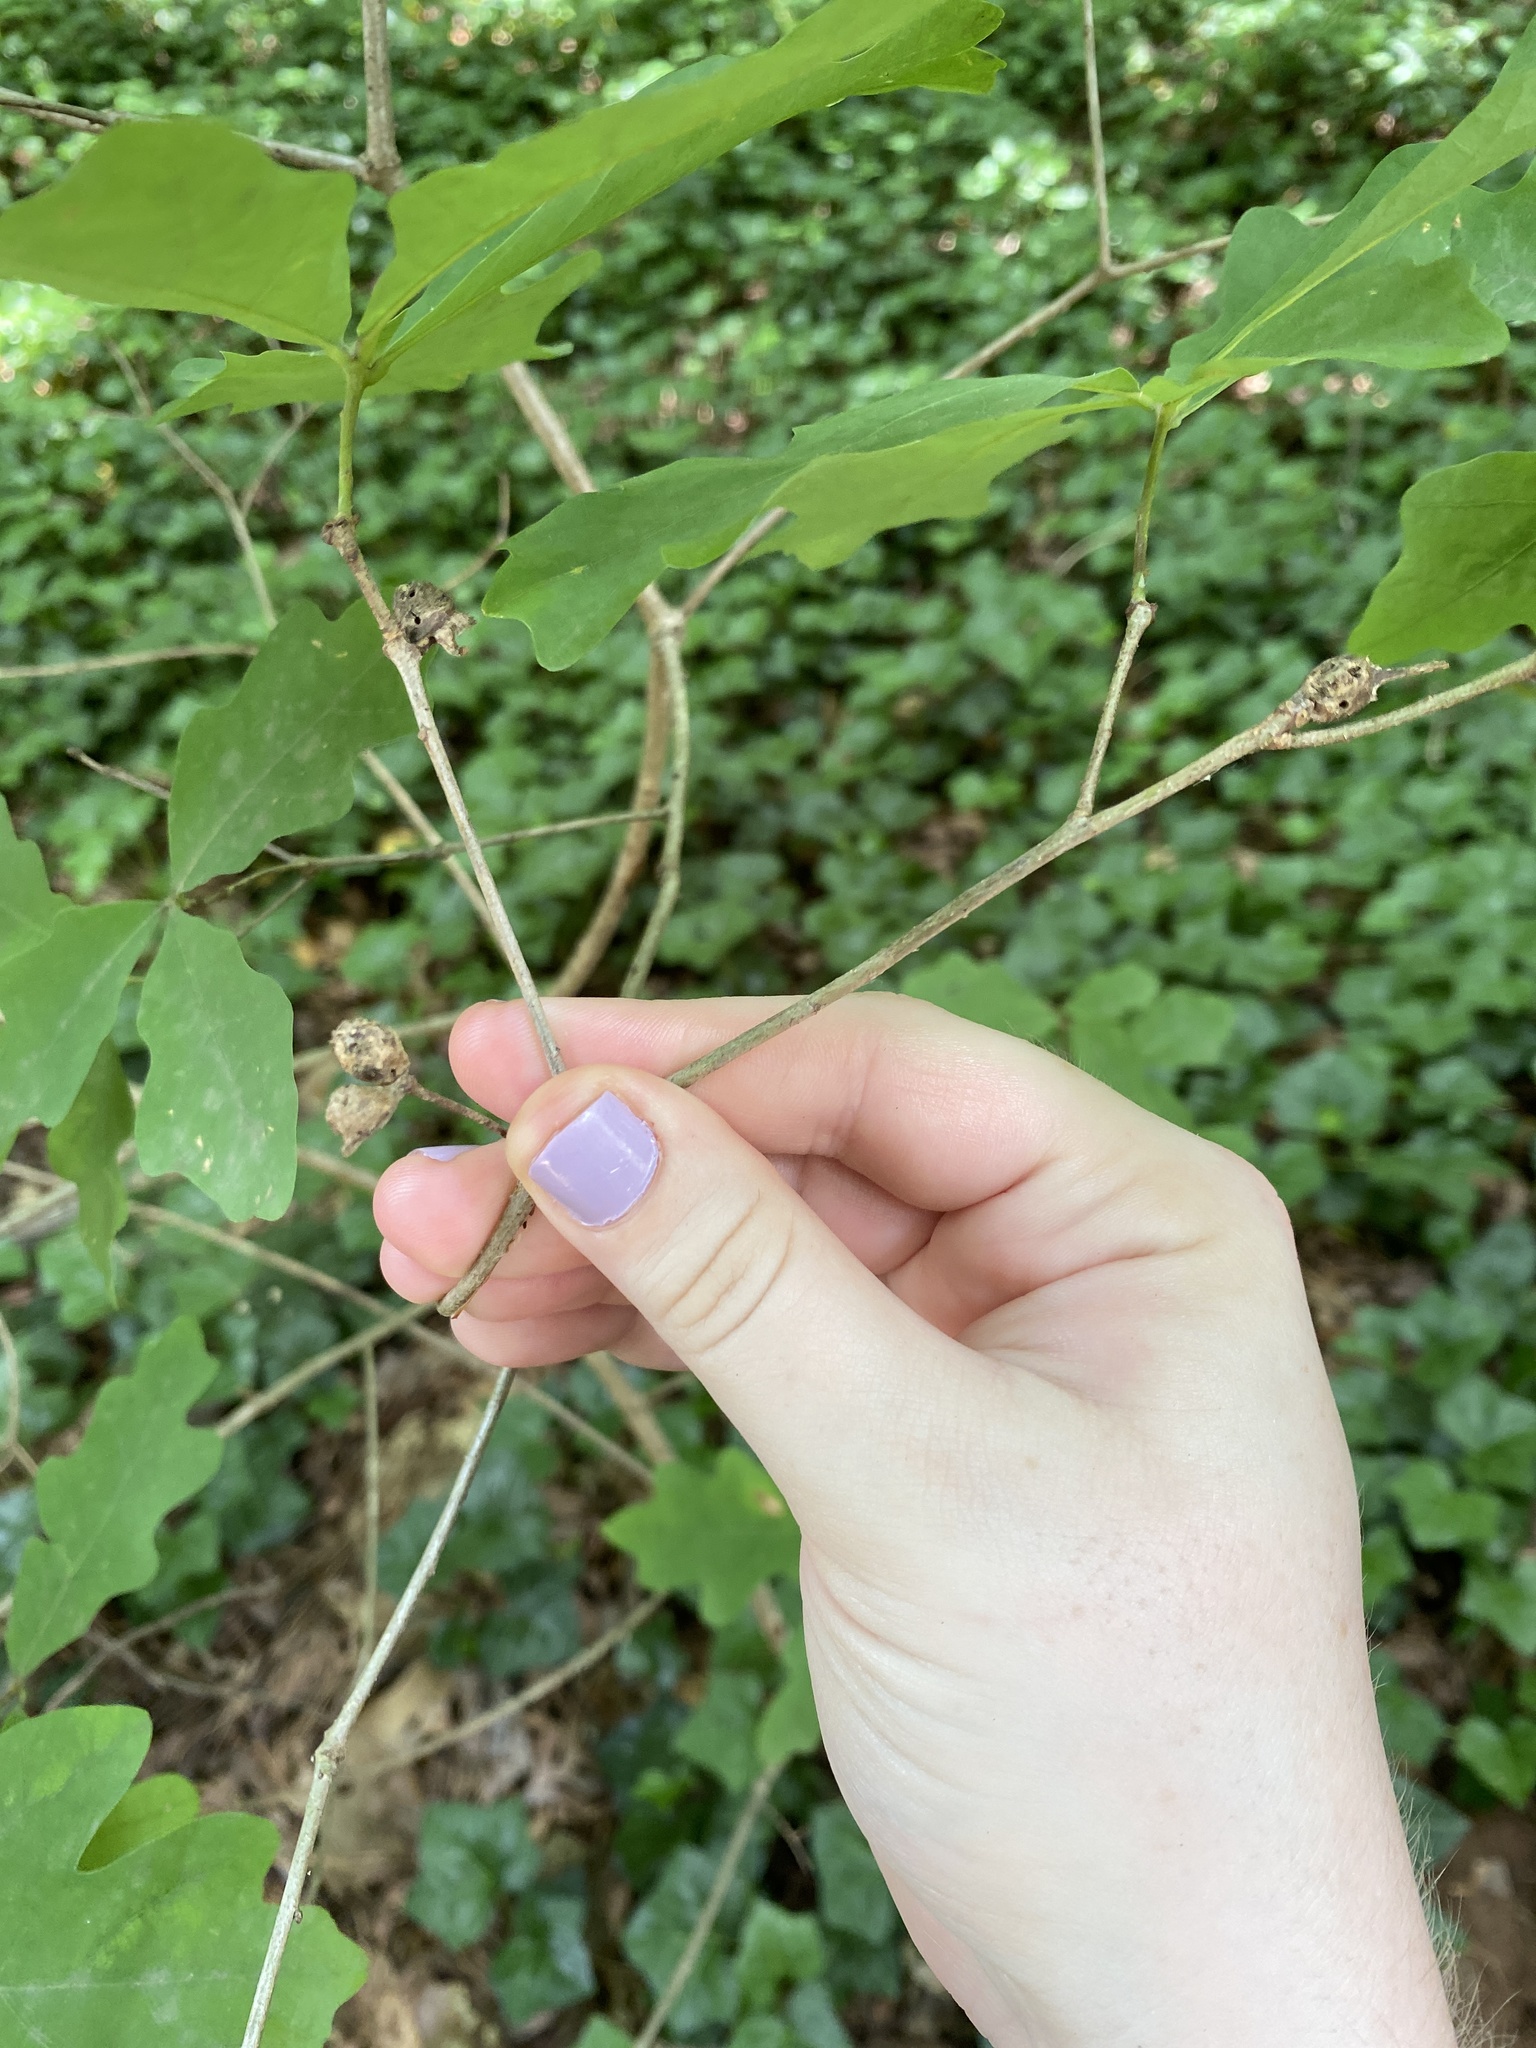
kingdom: Animalia
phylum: Arthropoda
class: Insecta
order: Hymenoptera
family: Cynipidae
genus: Neuroterus
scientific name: Neuroterus quercusbaccarum
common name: Common spangle gall
